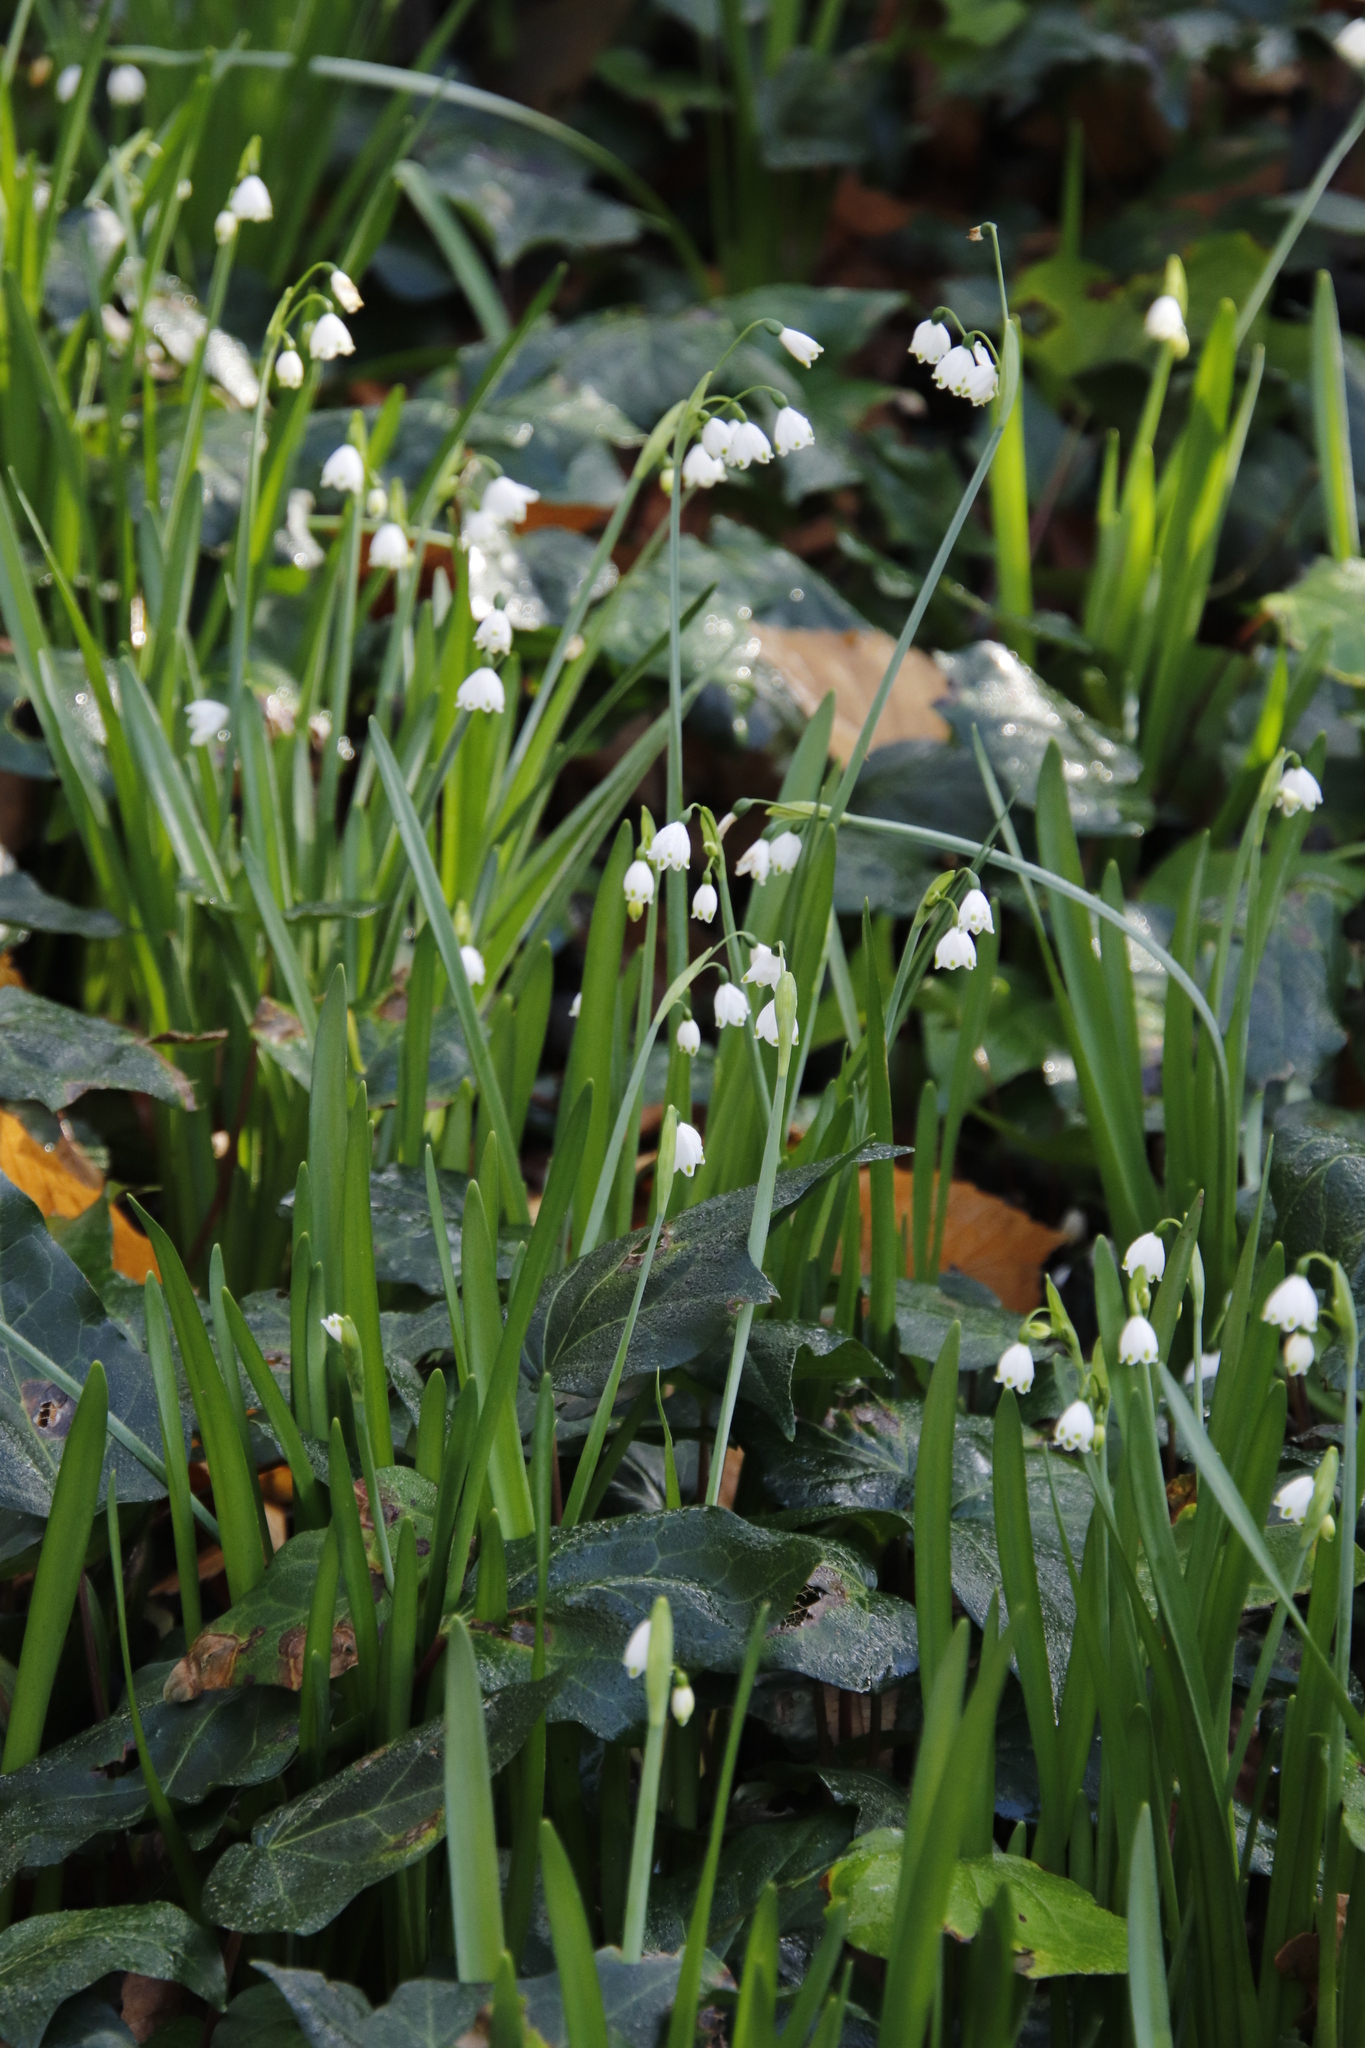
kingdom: Plantae
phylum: Tracheophyta
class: Liliopsida
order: Asparagales
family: Amaryllidaceae
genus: Leucojum
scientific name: Leucojum aestivum
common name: Summer snowflake
